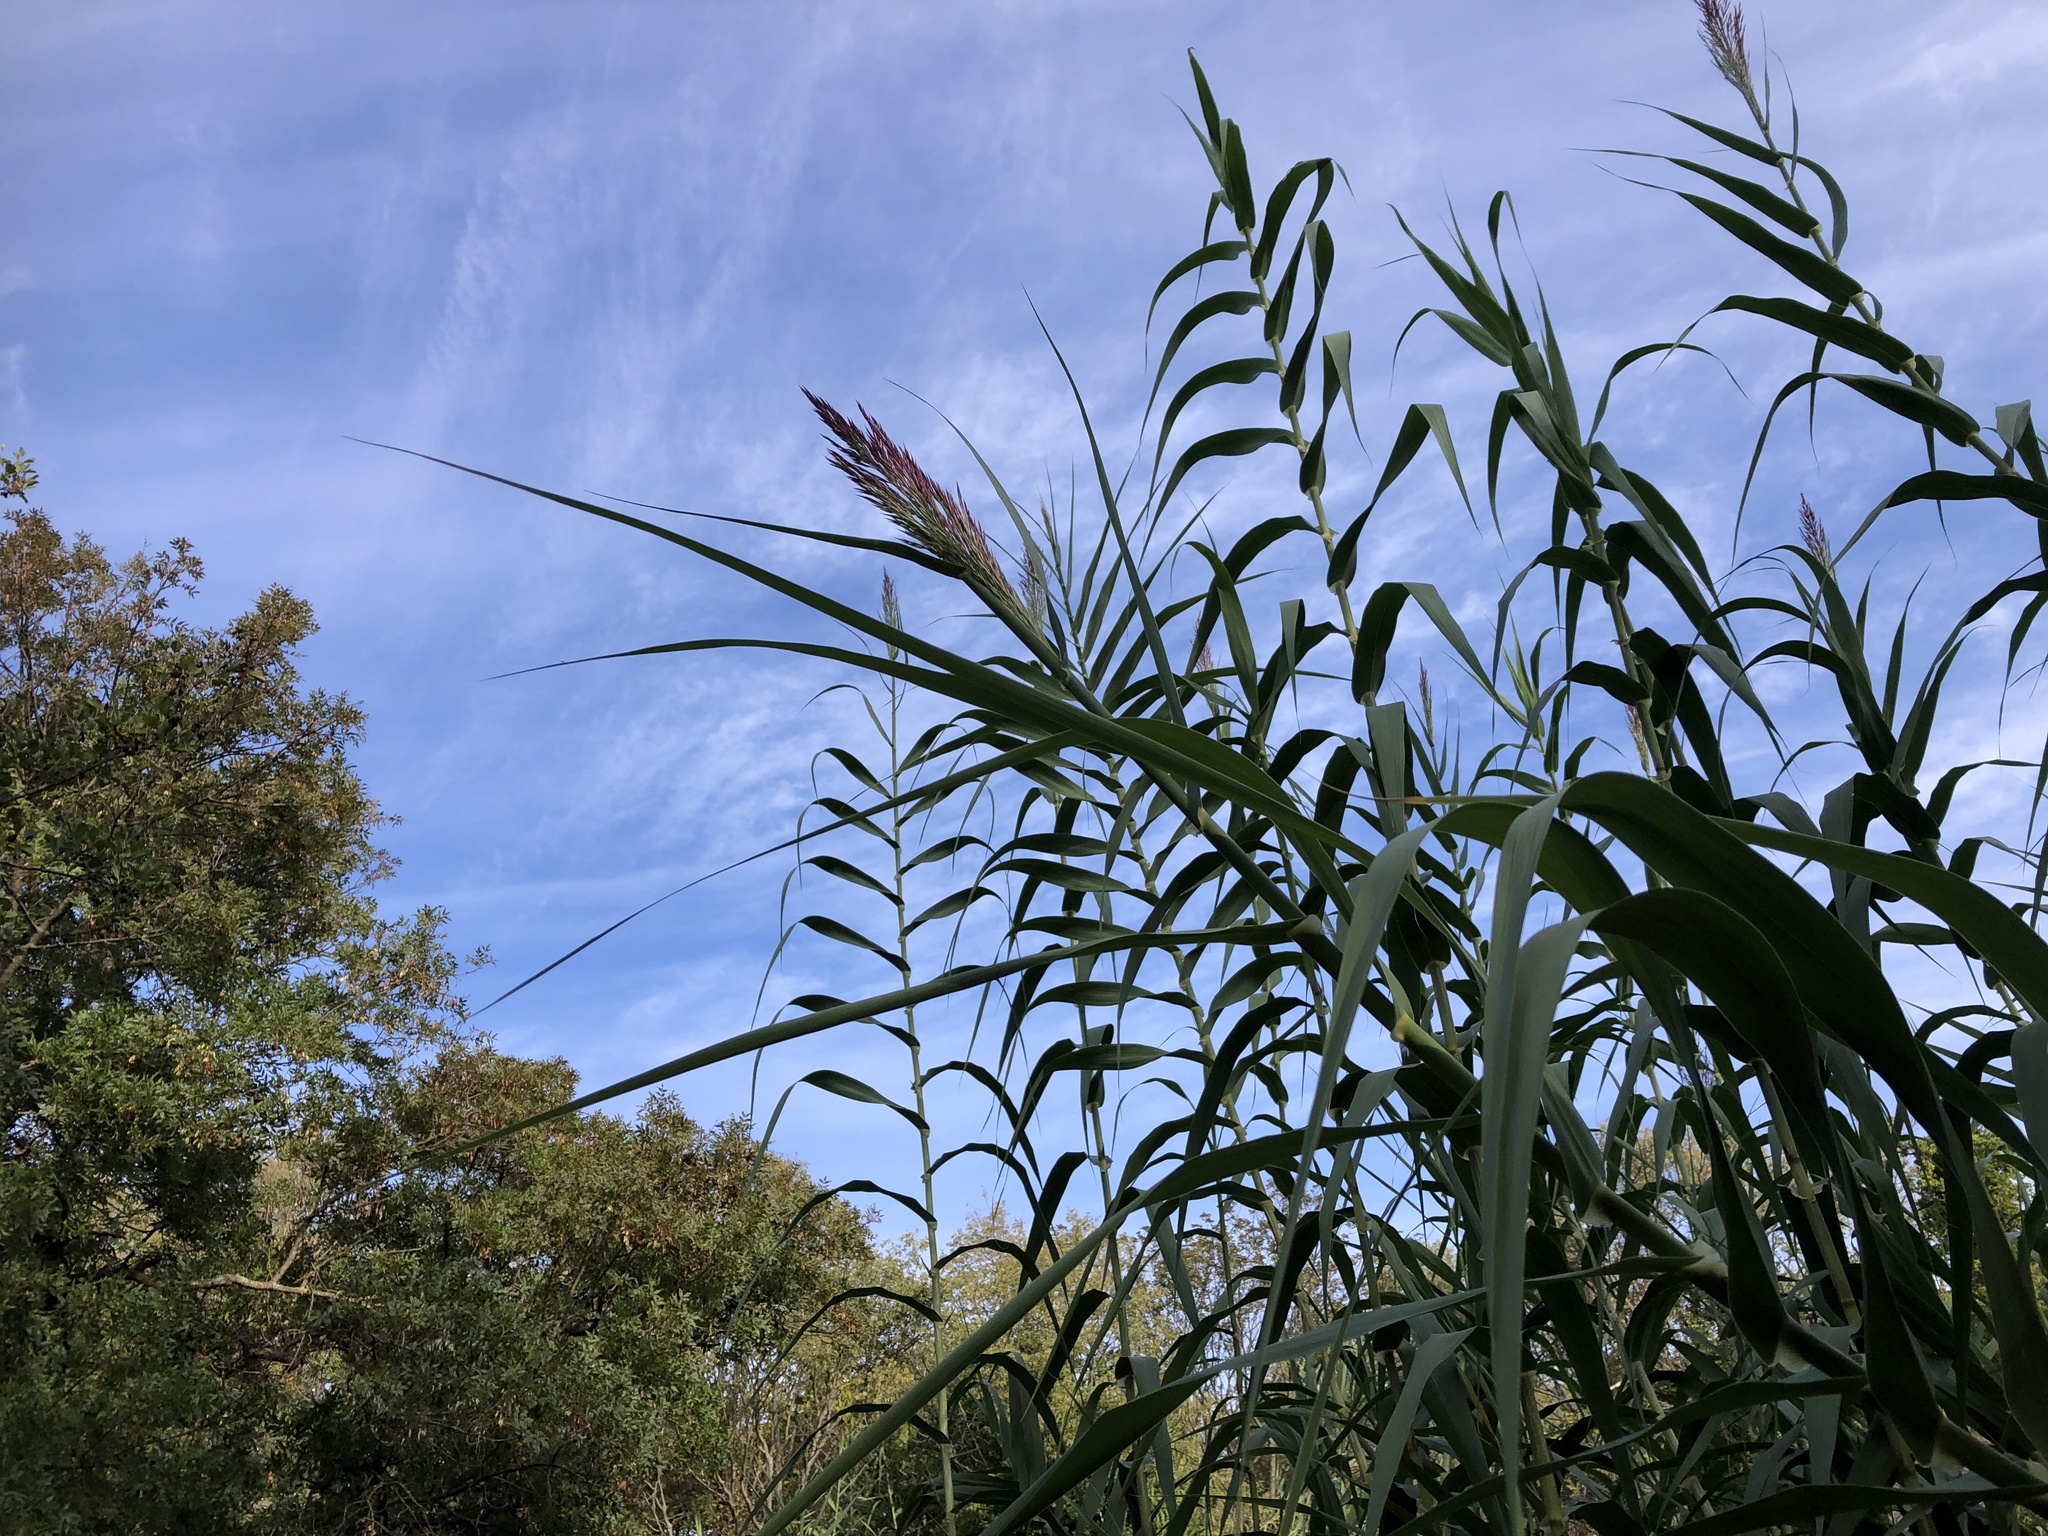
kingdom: Plantae
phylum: Tracheophyta
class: Liliopsida
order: Poales
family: Poaceae
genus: Arundo
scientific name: Arundo donax
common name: Giant reed
